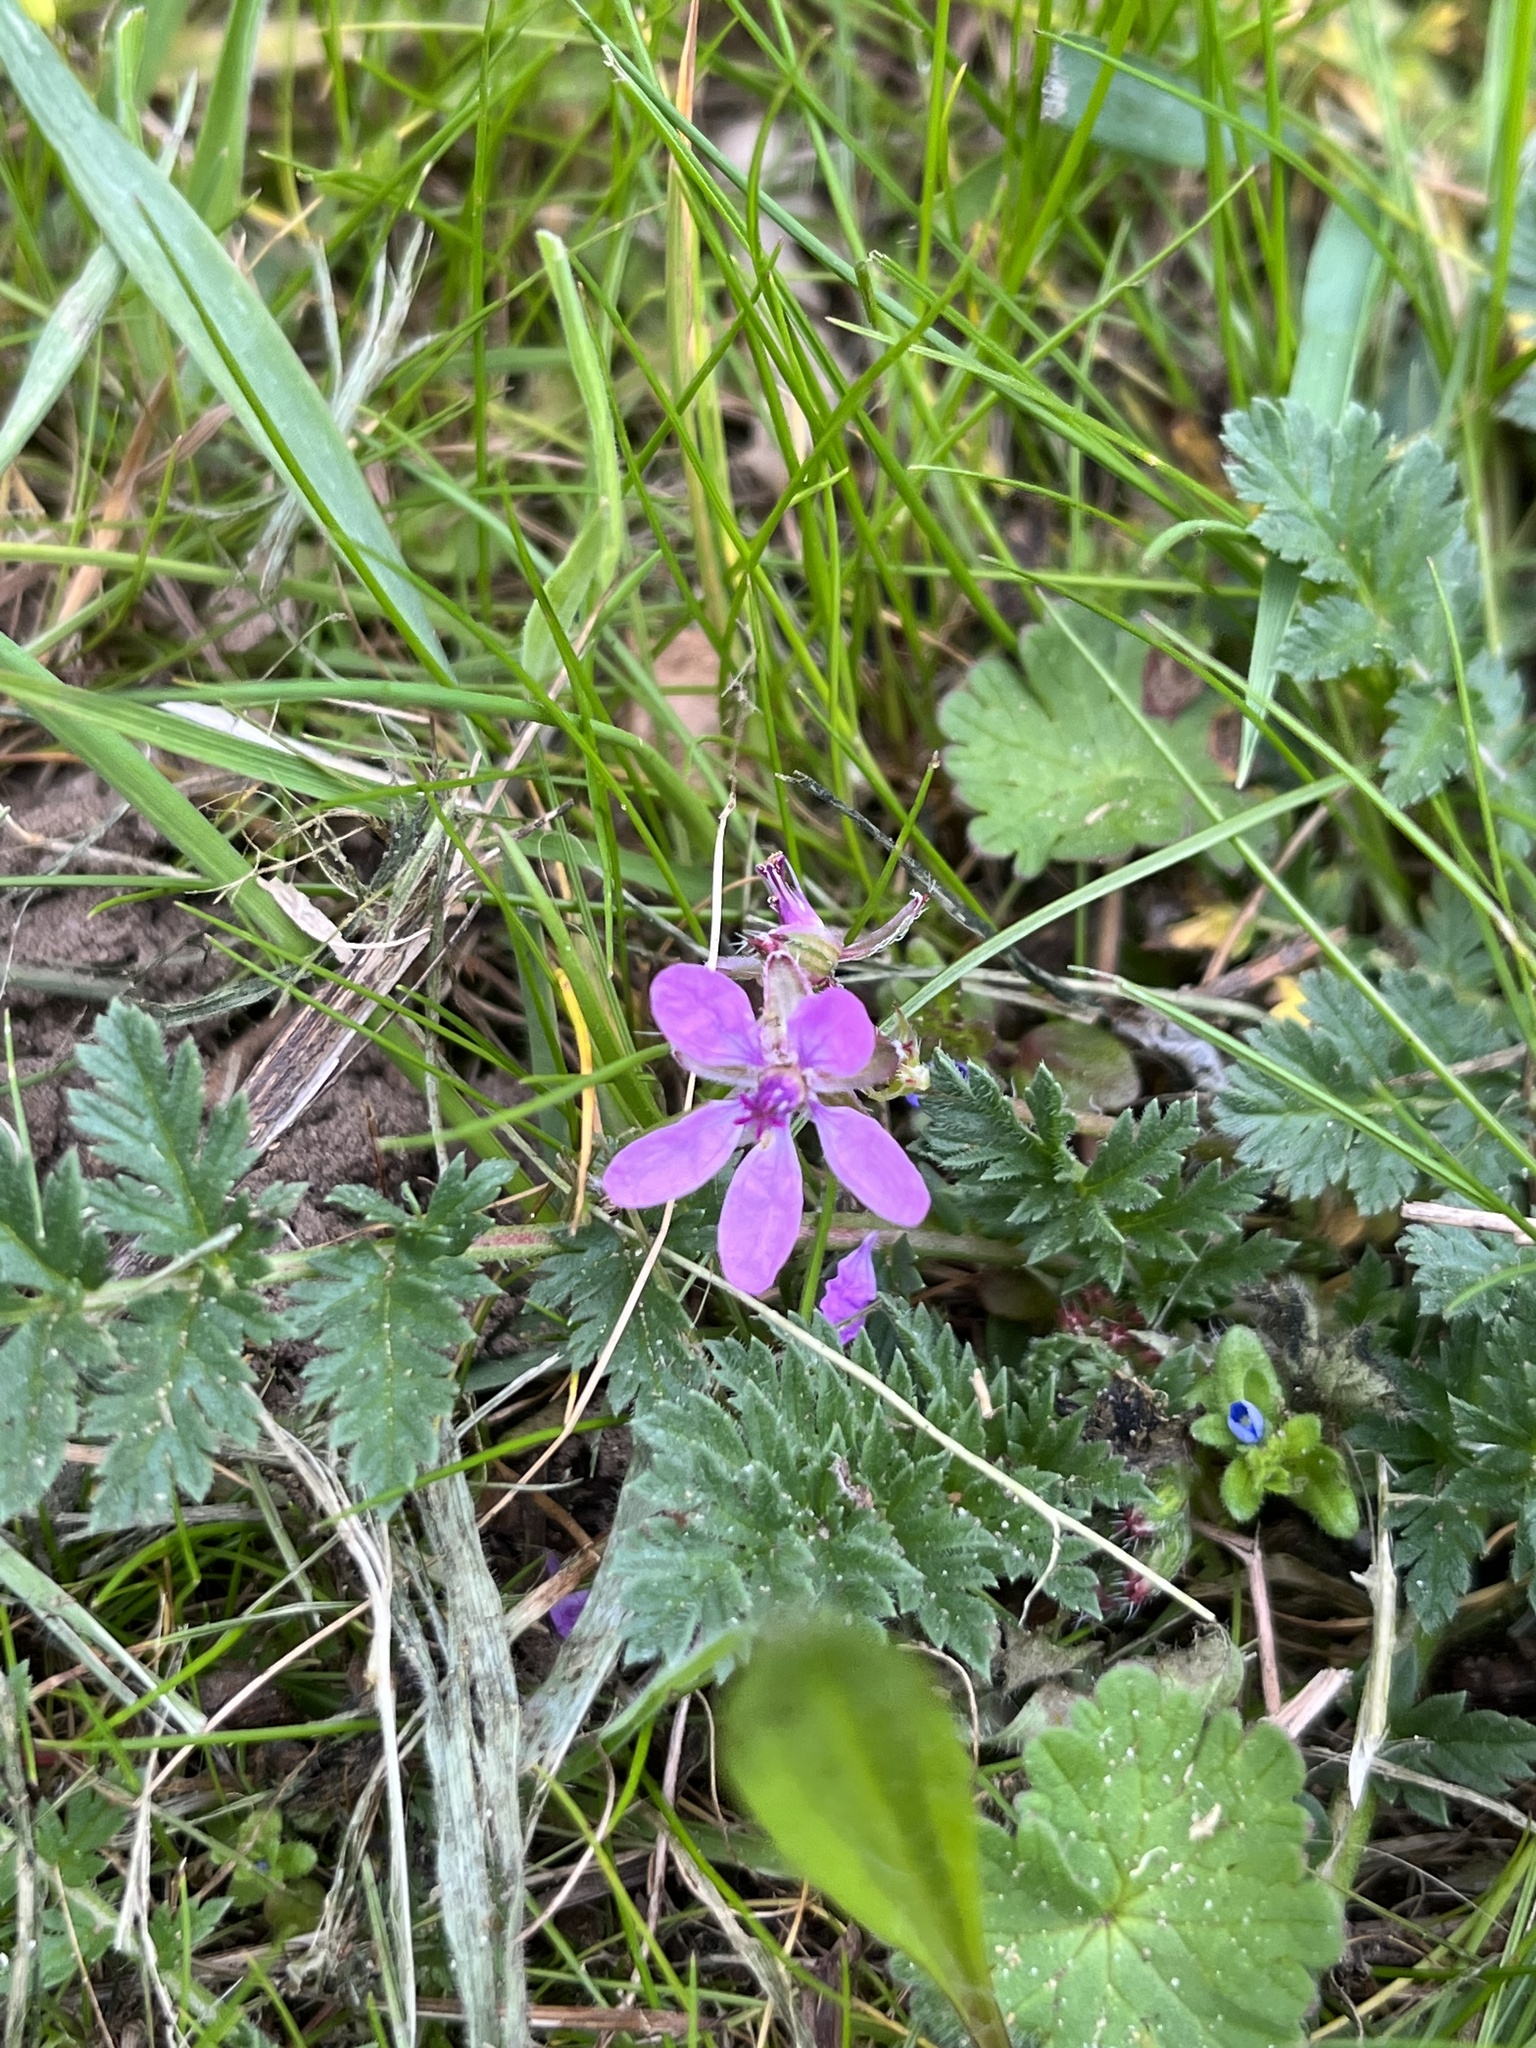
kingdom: Plantae
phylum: Tracheophyta
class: Magnoliopsida
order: Geraniales
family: Geraniaceae
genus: Erodium
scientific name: Erodium cicutarium
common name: Common stork's-bill
